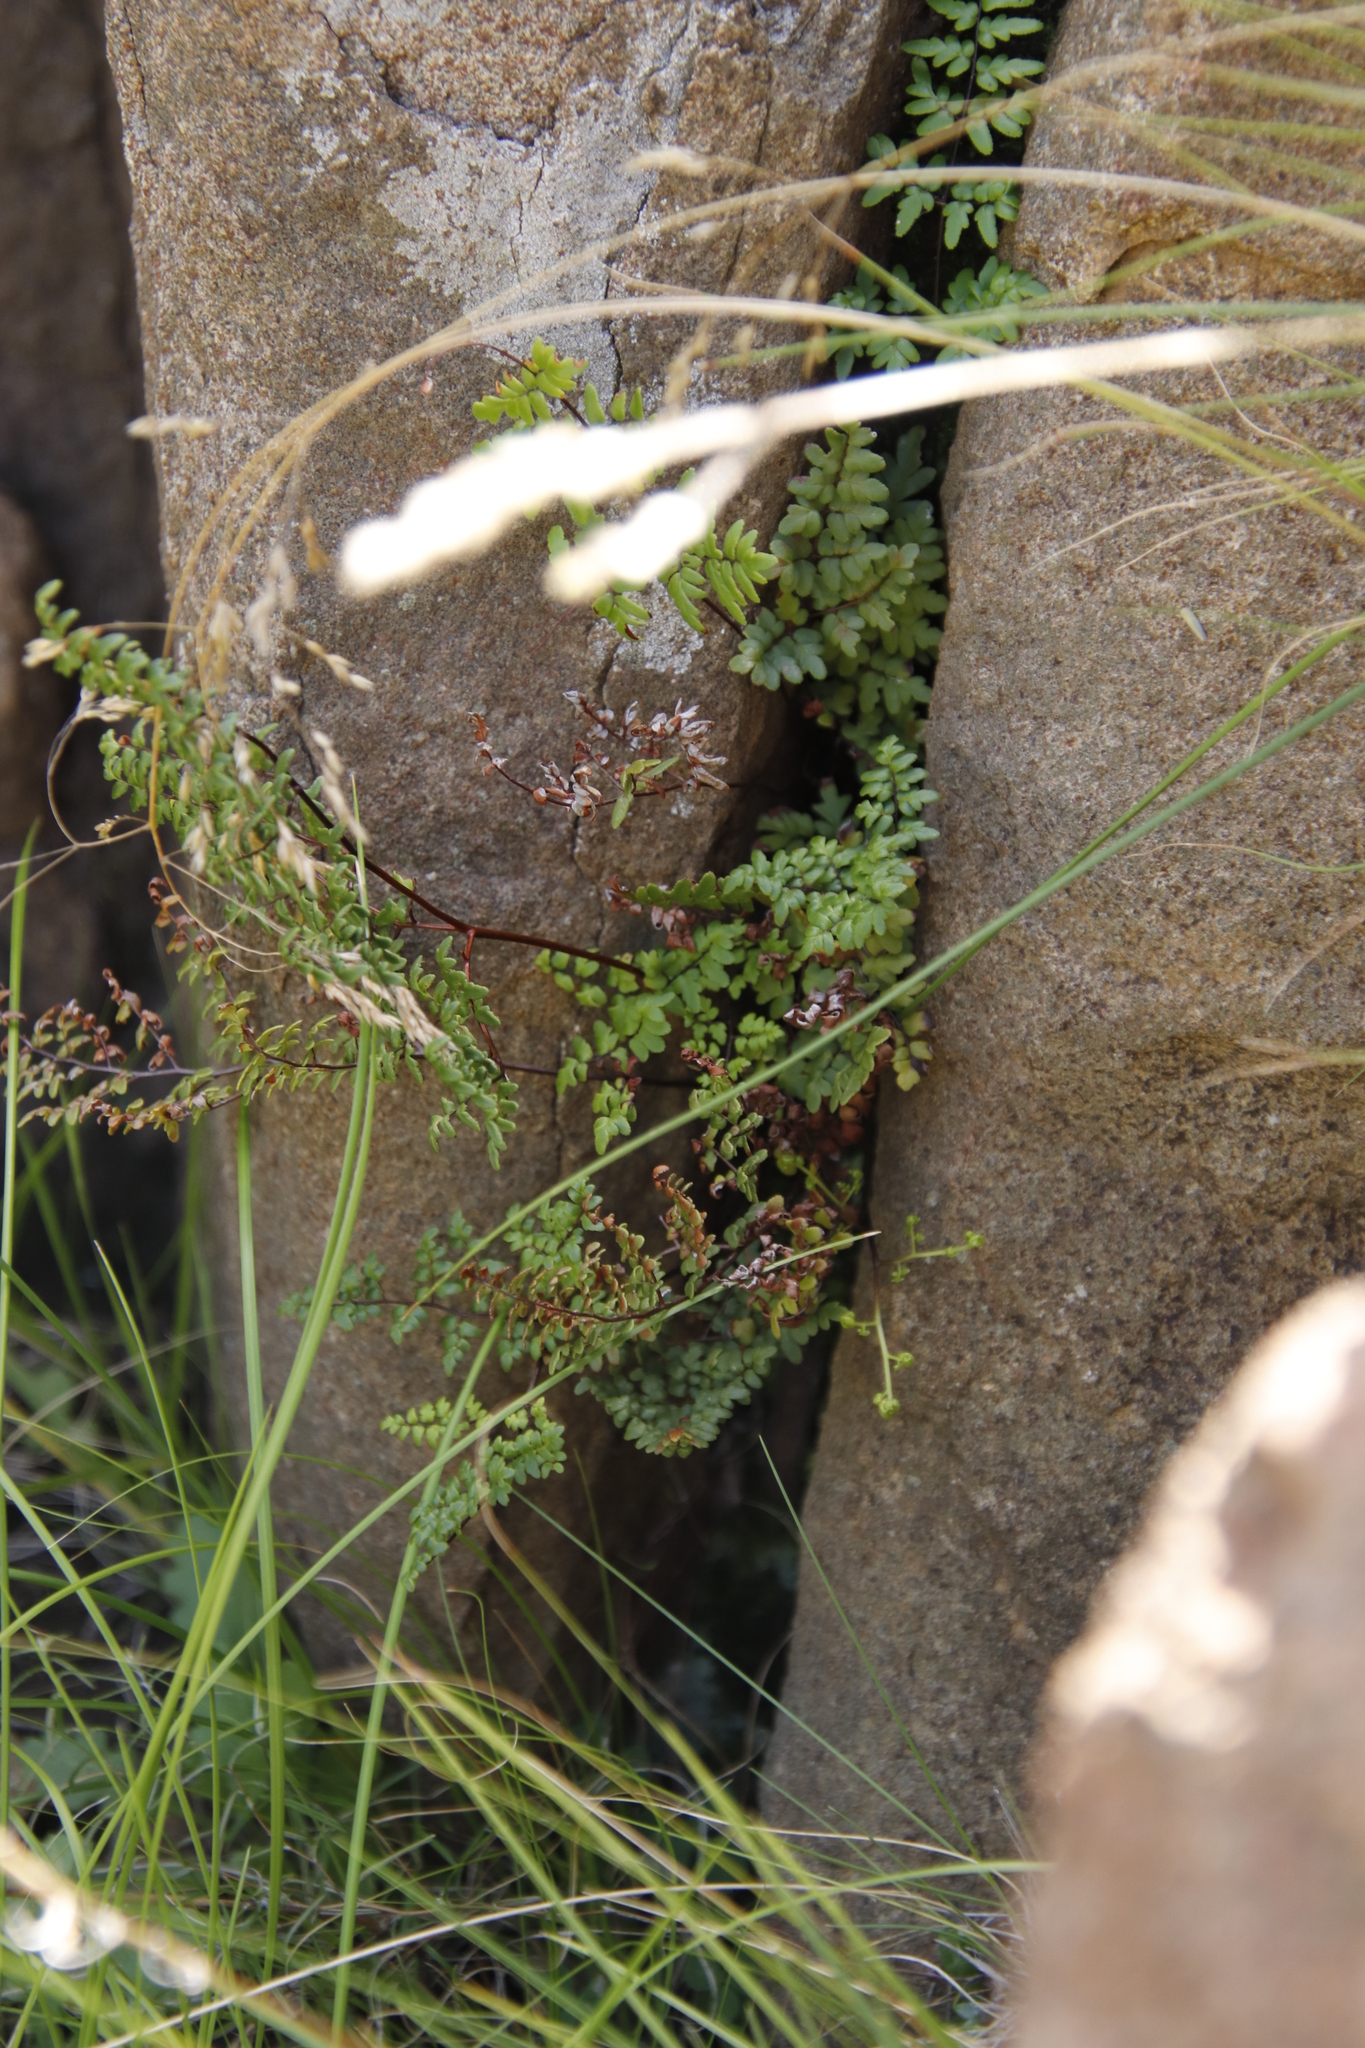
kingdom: Plantae
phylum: Tracheophyta
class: Polypodiopsida
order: Polypodiales
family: Pteridaceae
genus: Cheilanthes
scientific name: Cheilanthes quadripinnata
